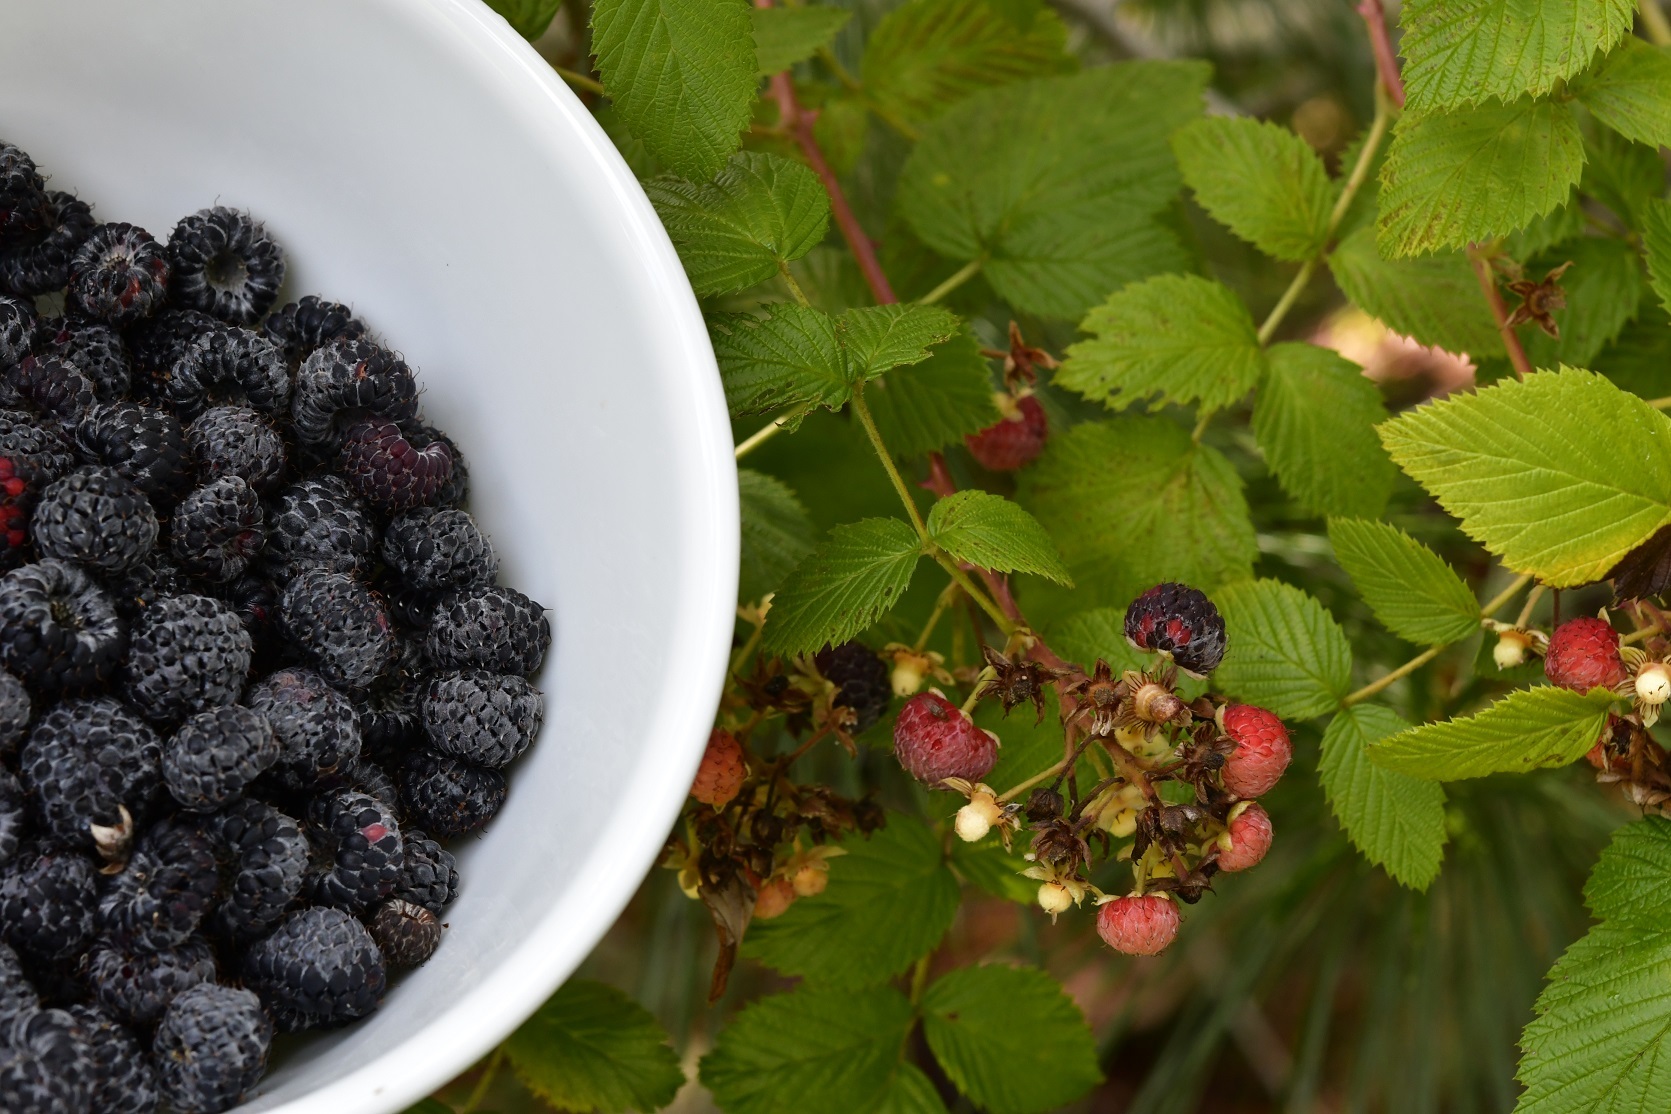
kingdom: Plantae
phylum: Tracheophyta
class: Magnoliopsida
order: Rosales
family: Rosaceae
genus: Rubus
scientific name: Rubus niveus
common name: Snowpeaks raspberry
